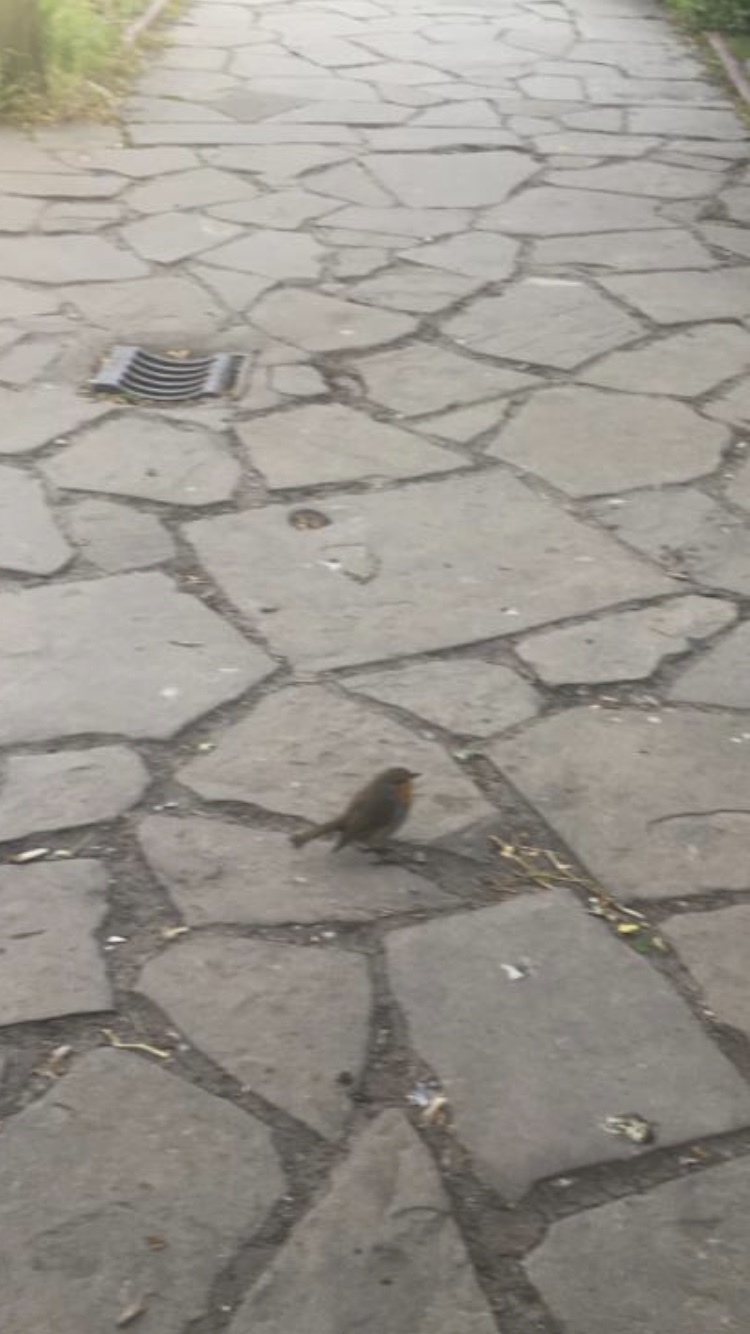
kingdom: Animalia
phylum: Chordata
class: Aves
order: Passeriformes
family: Muscicapidae
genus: Erithacus
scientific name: Erithacus rubecula
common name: European robin
